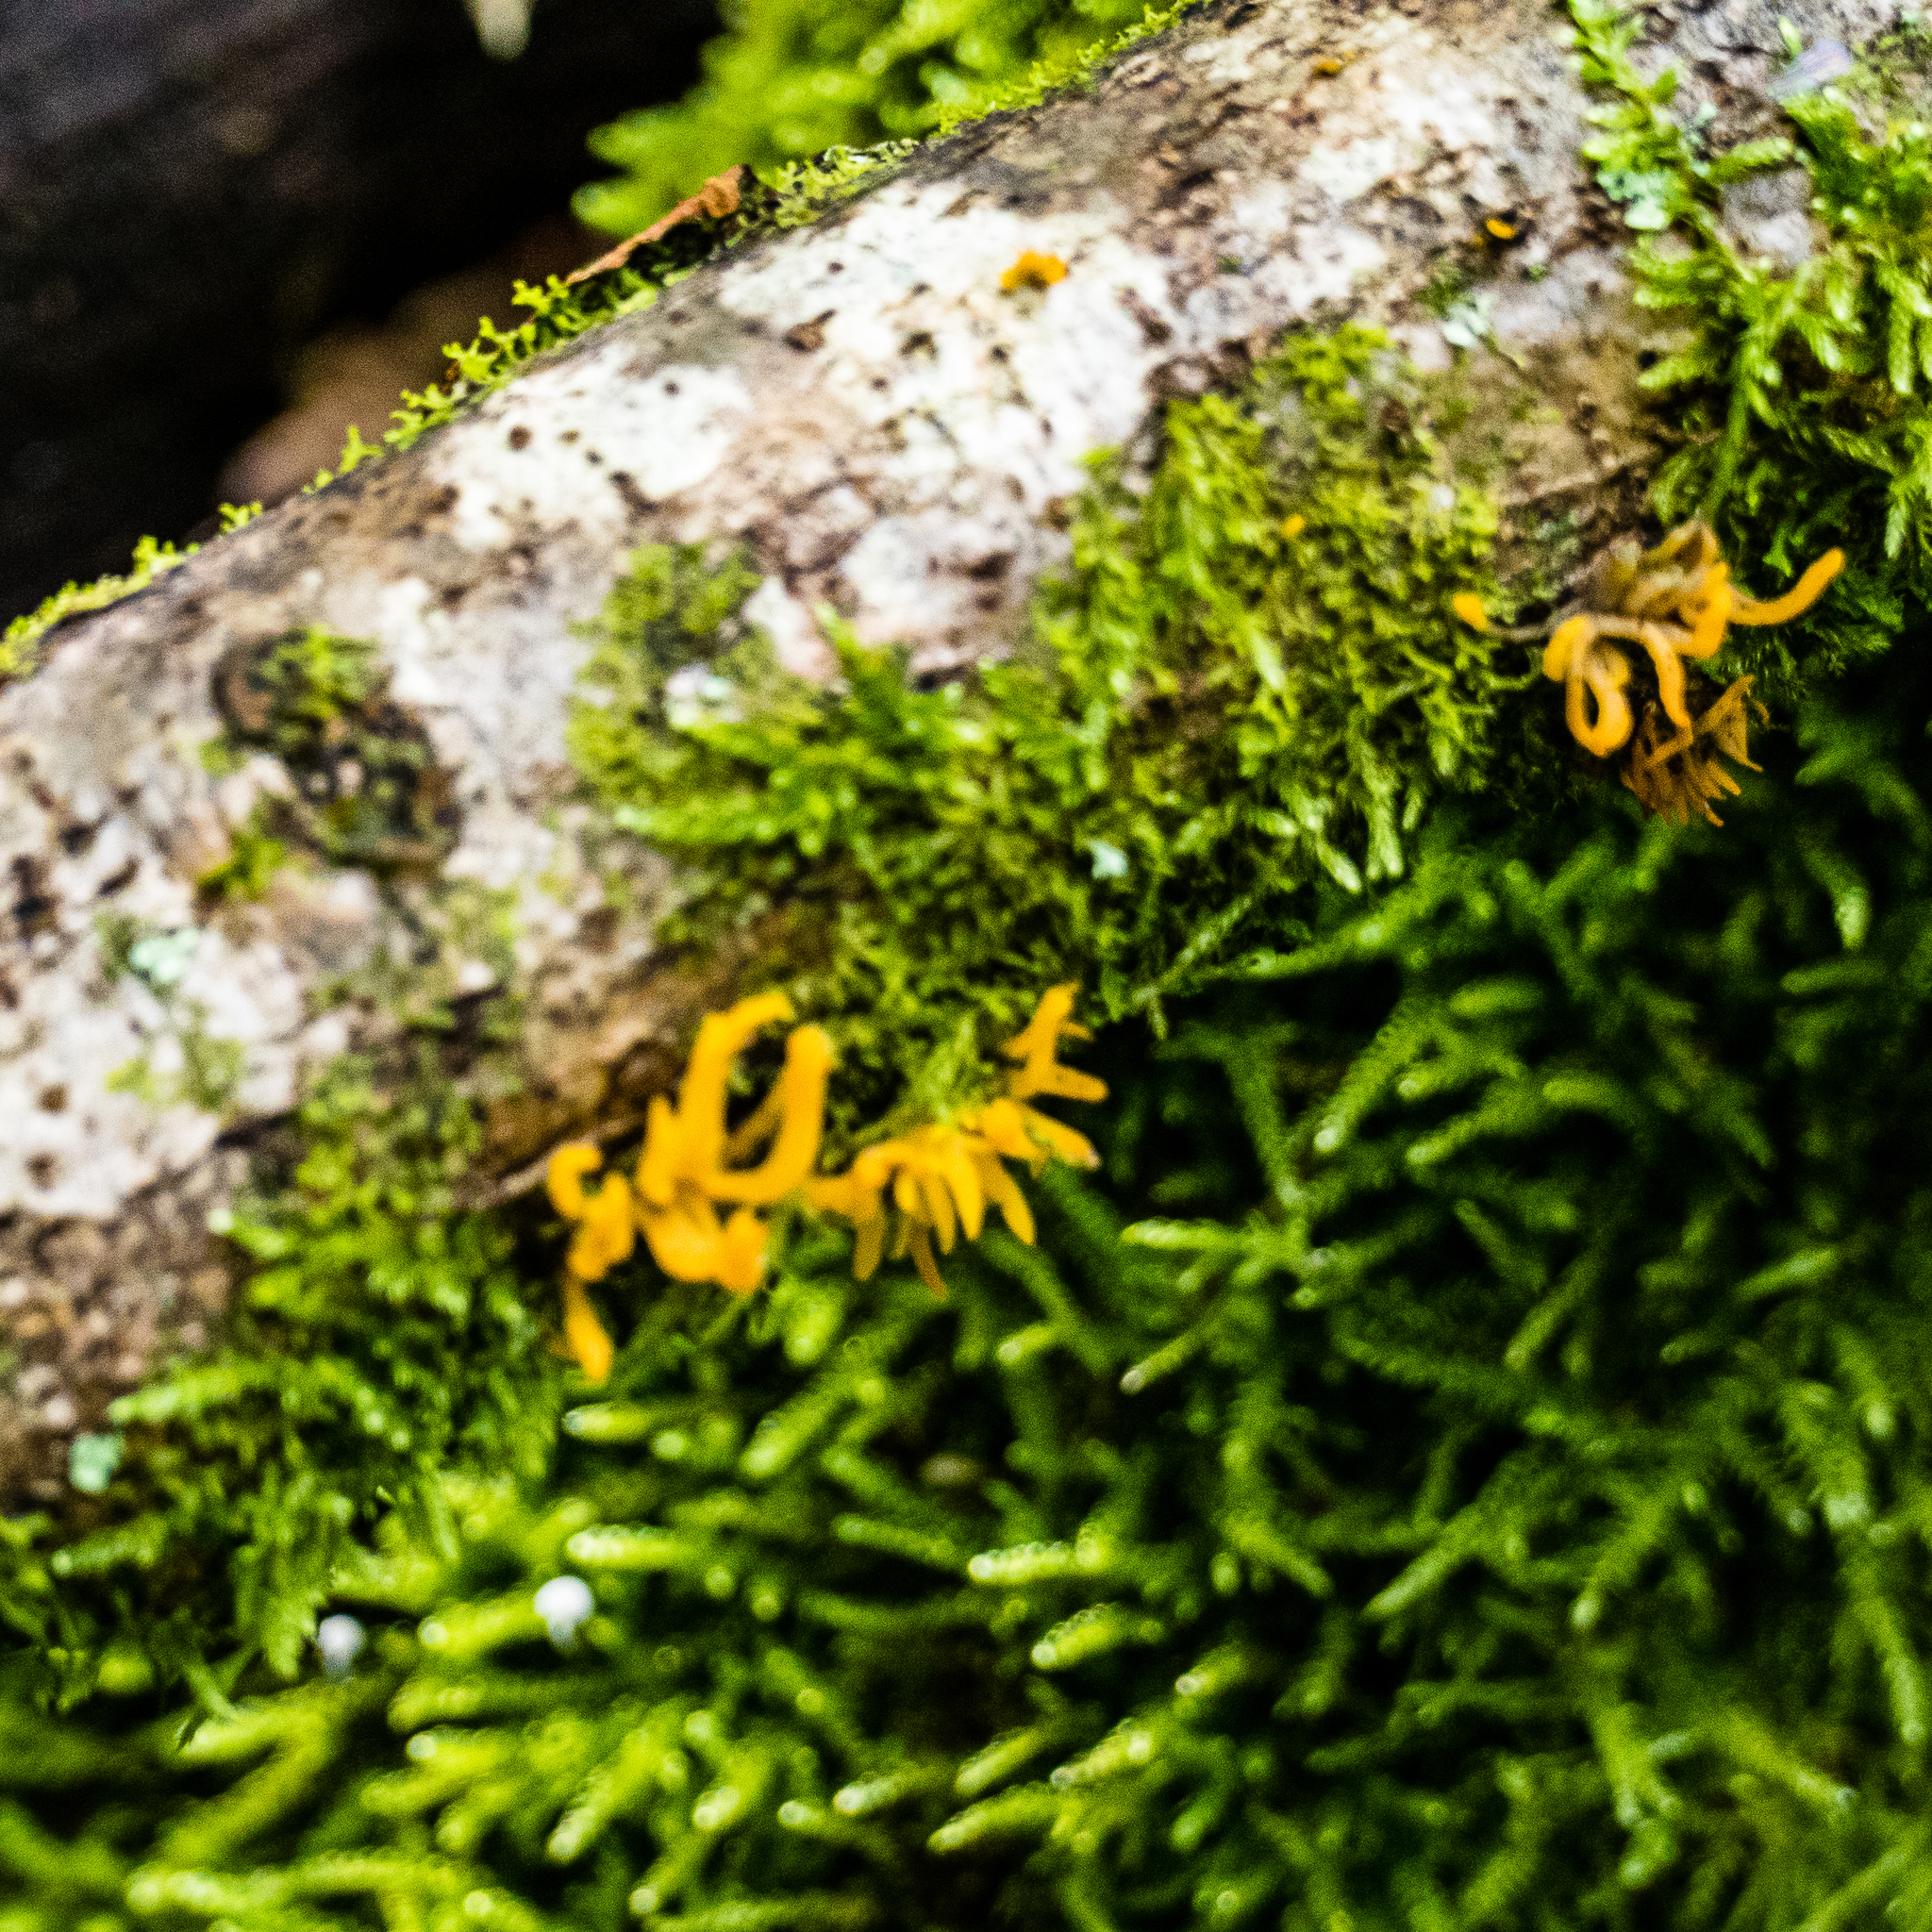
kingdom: Fungi
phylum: Basidiomycota
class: Dacrymycetes
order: Dacrymycetales
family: Dacrymycetaceae
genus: Calocera
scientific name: Calocera cornea
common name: Small stagshorn
